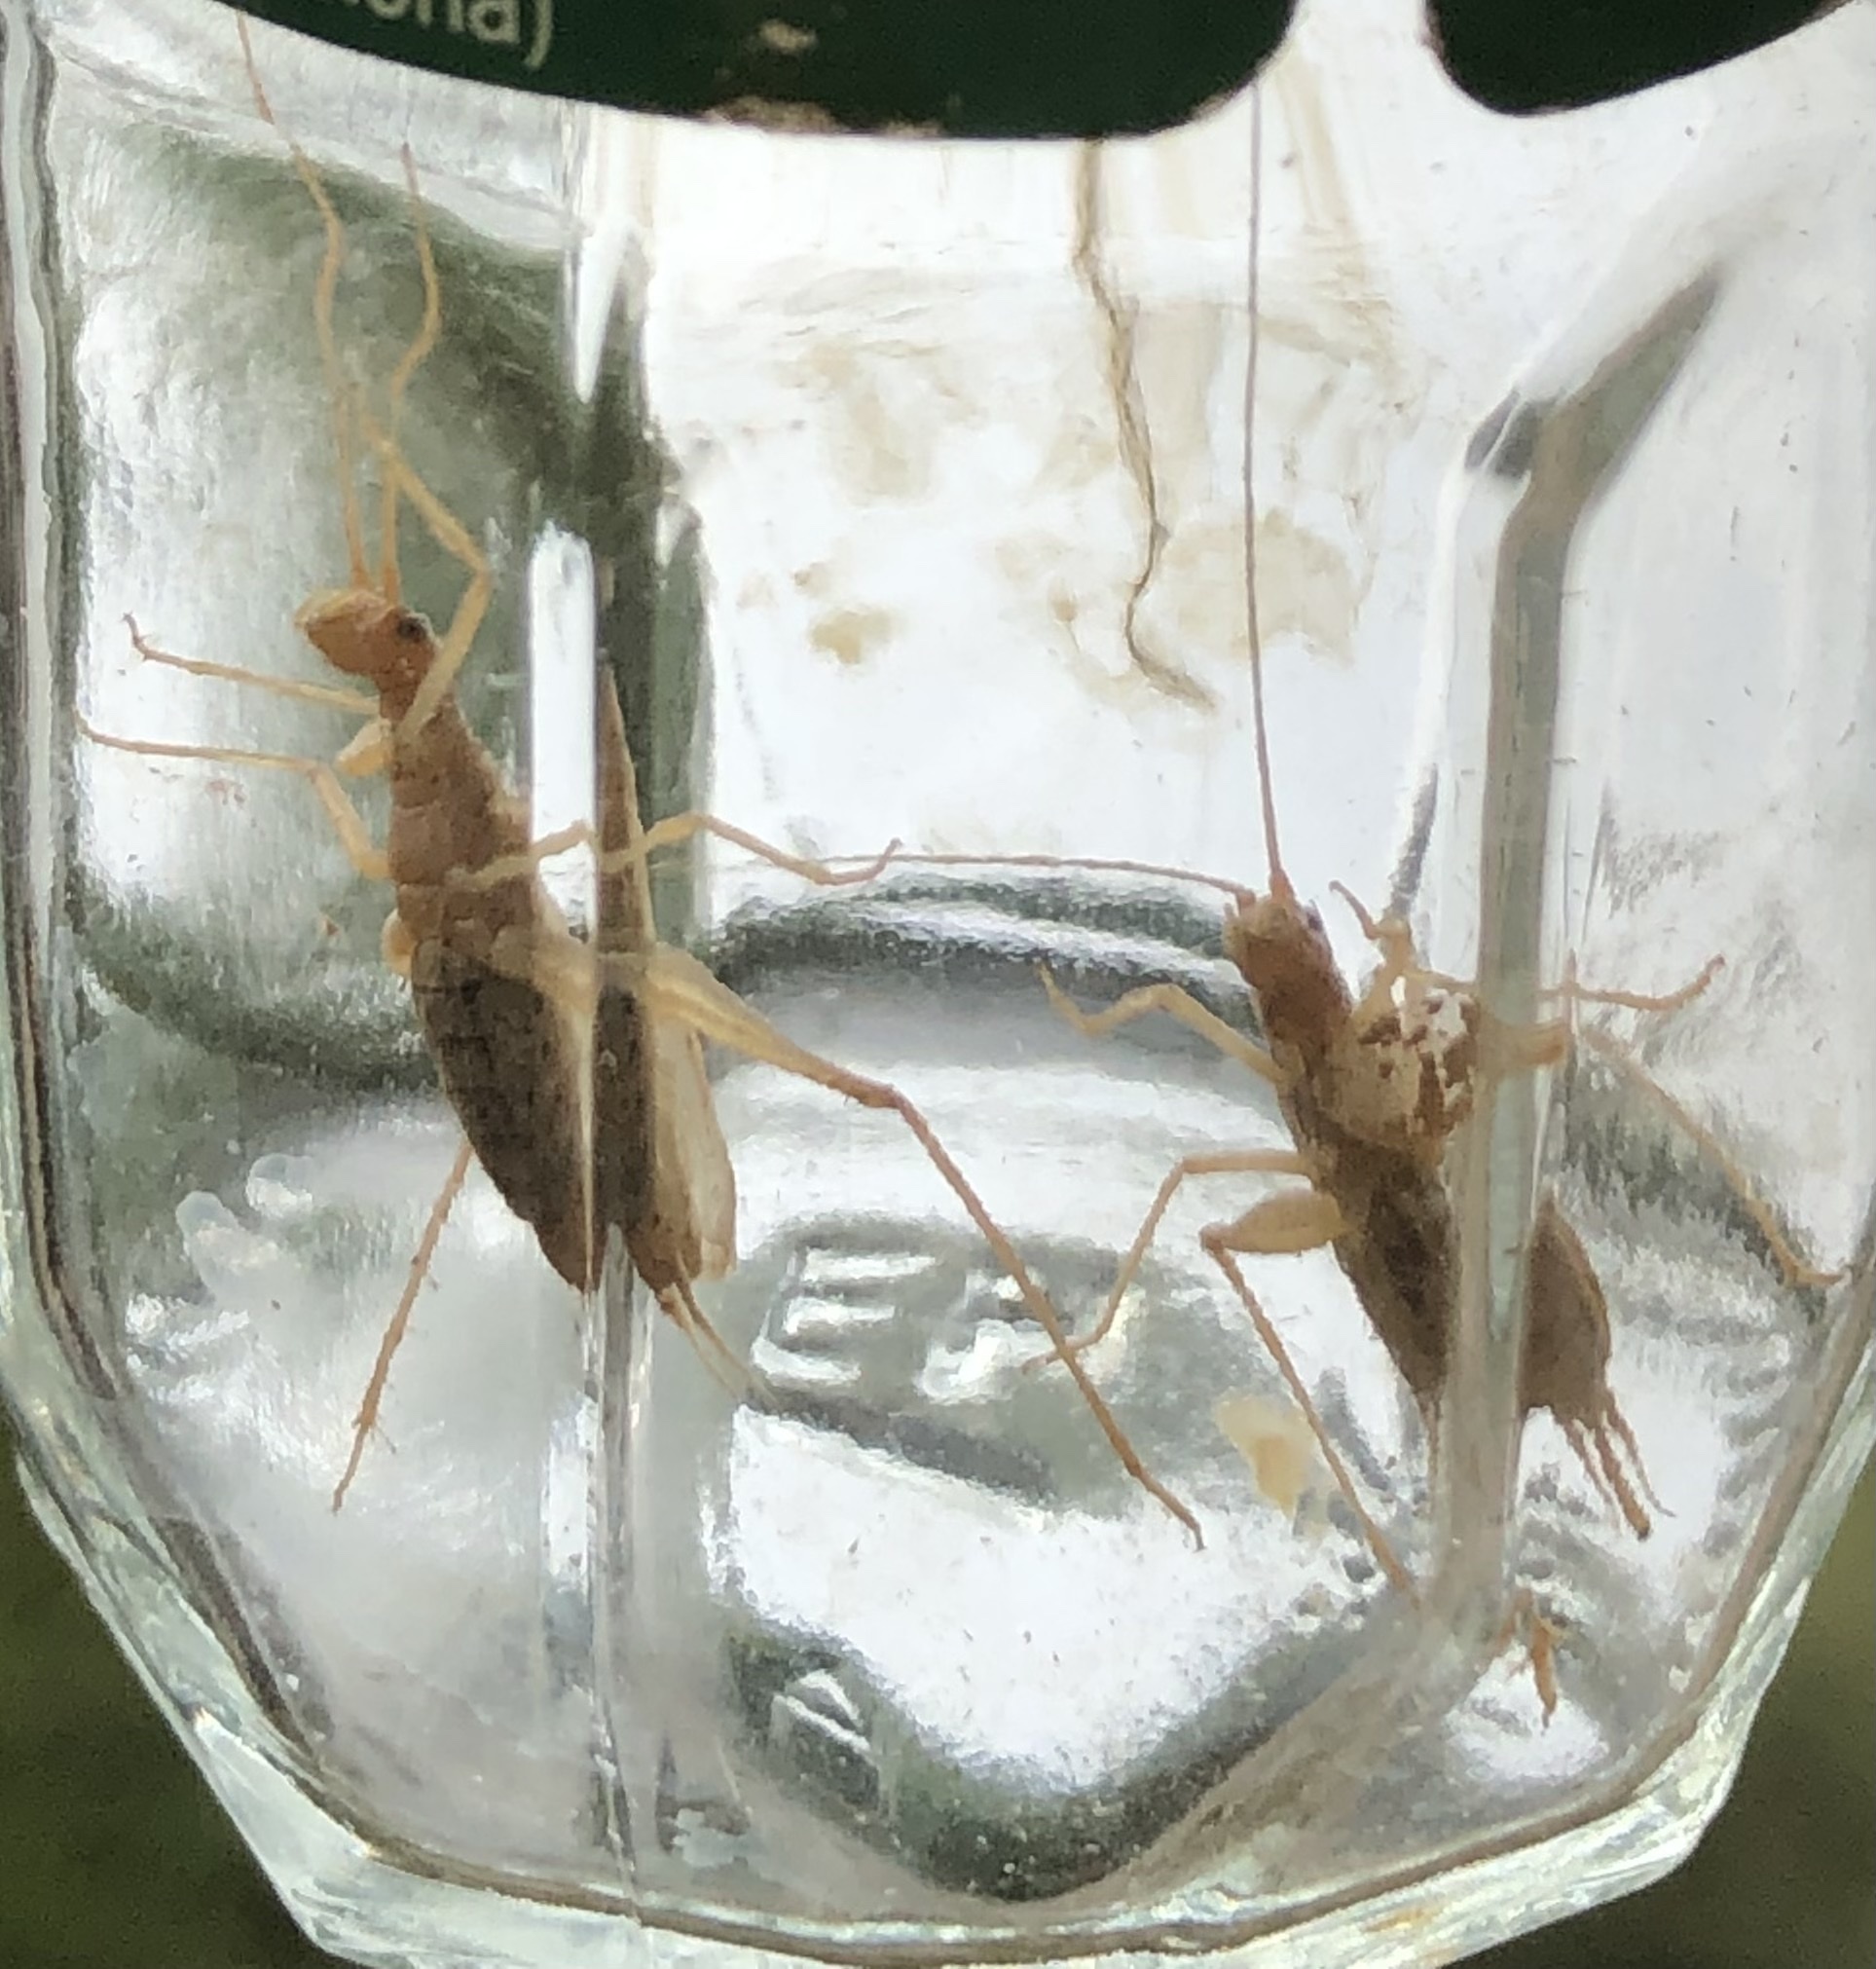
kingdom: Animalia
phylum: Arthropoda
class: Insecta
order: Orthoptera
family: Gryllidae
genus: Oecanthus
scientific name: Oecanthus pellucens
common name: Tree-cricket
